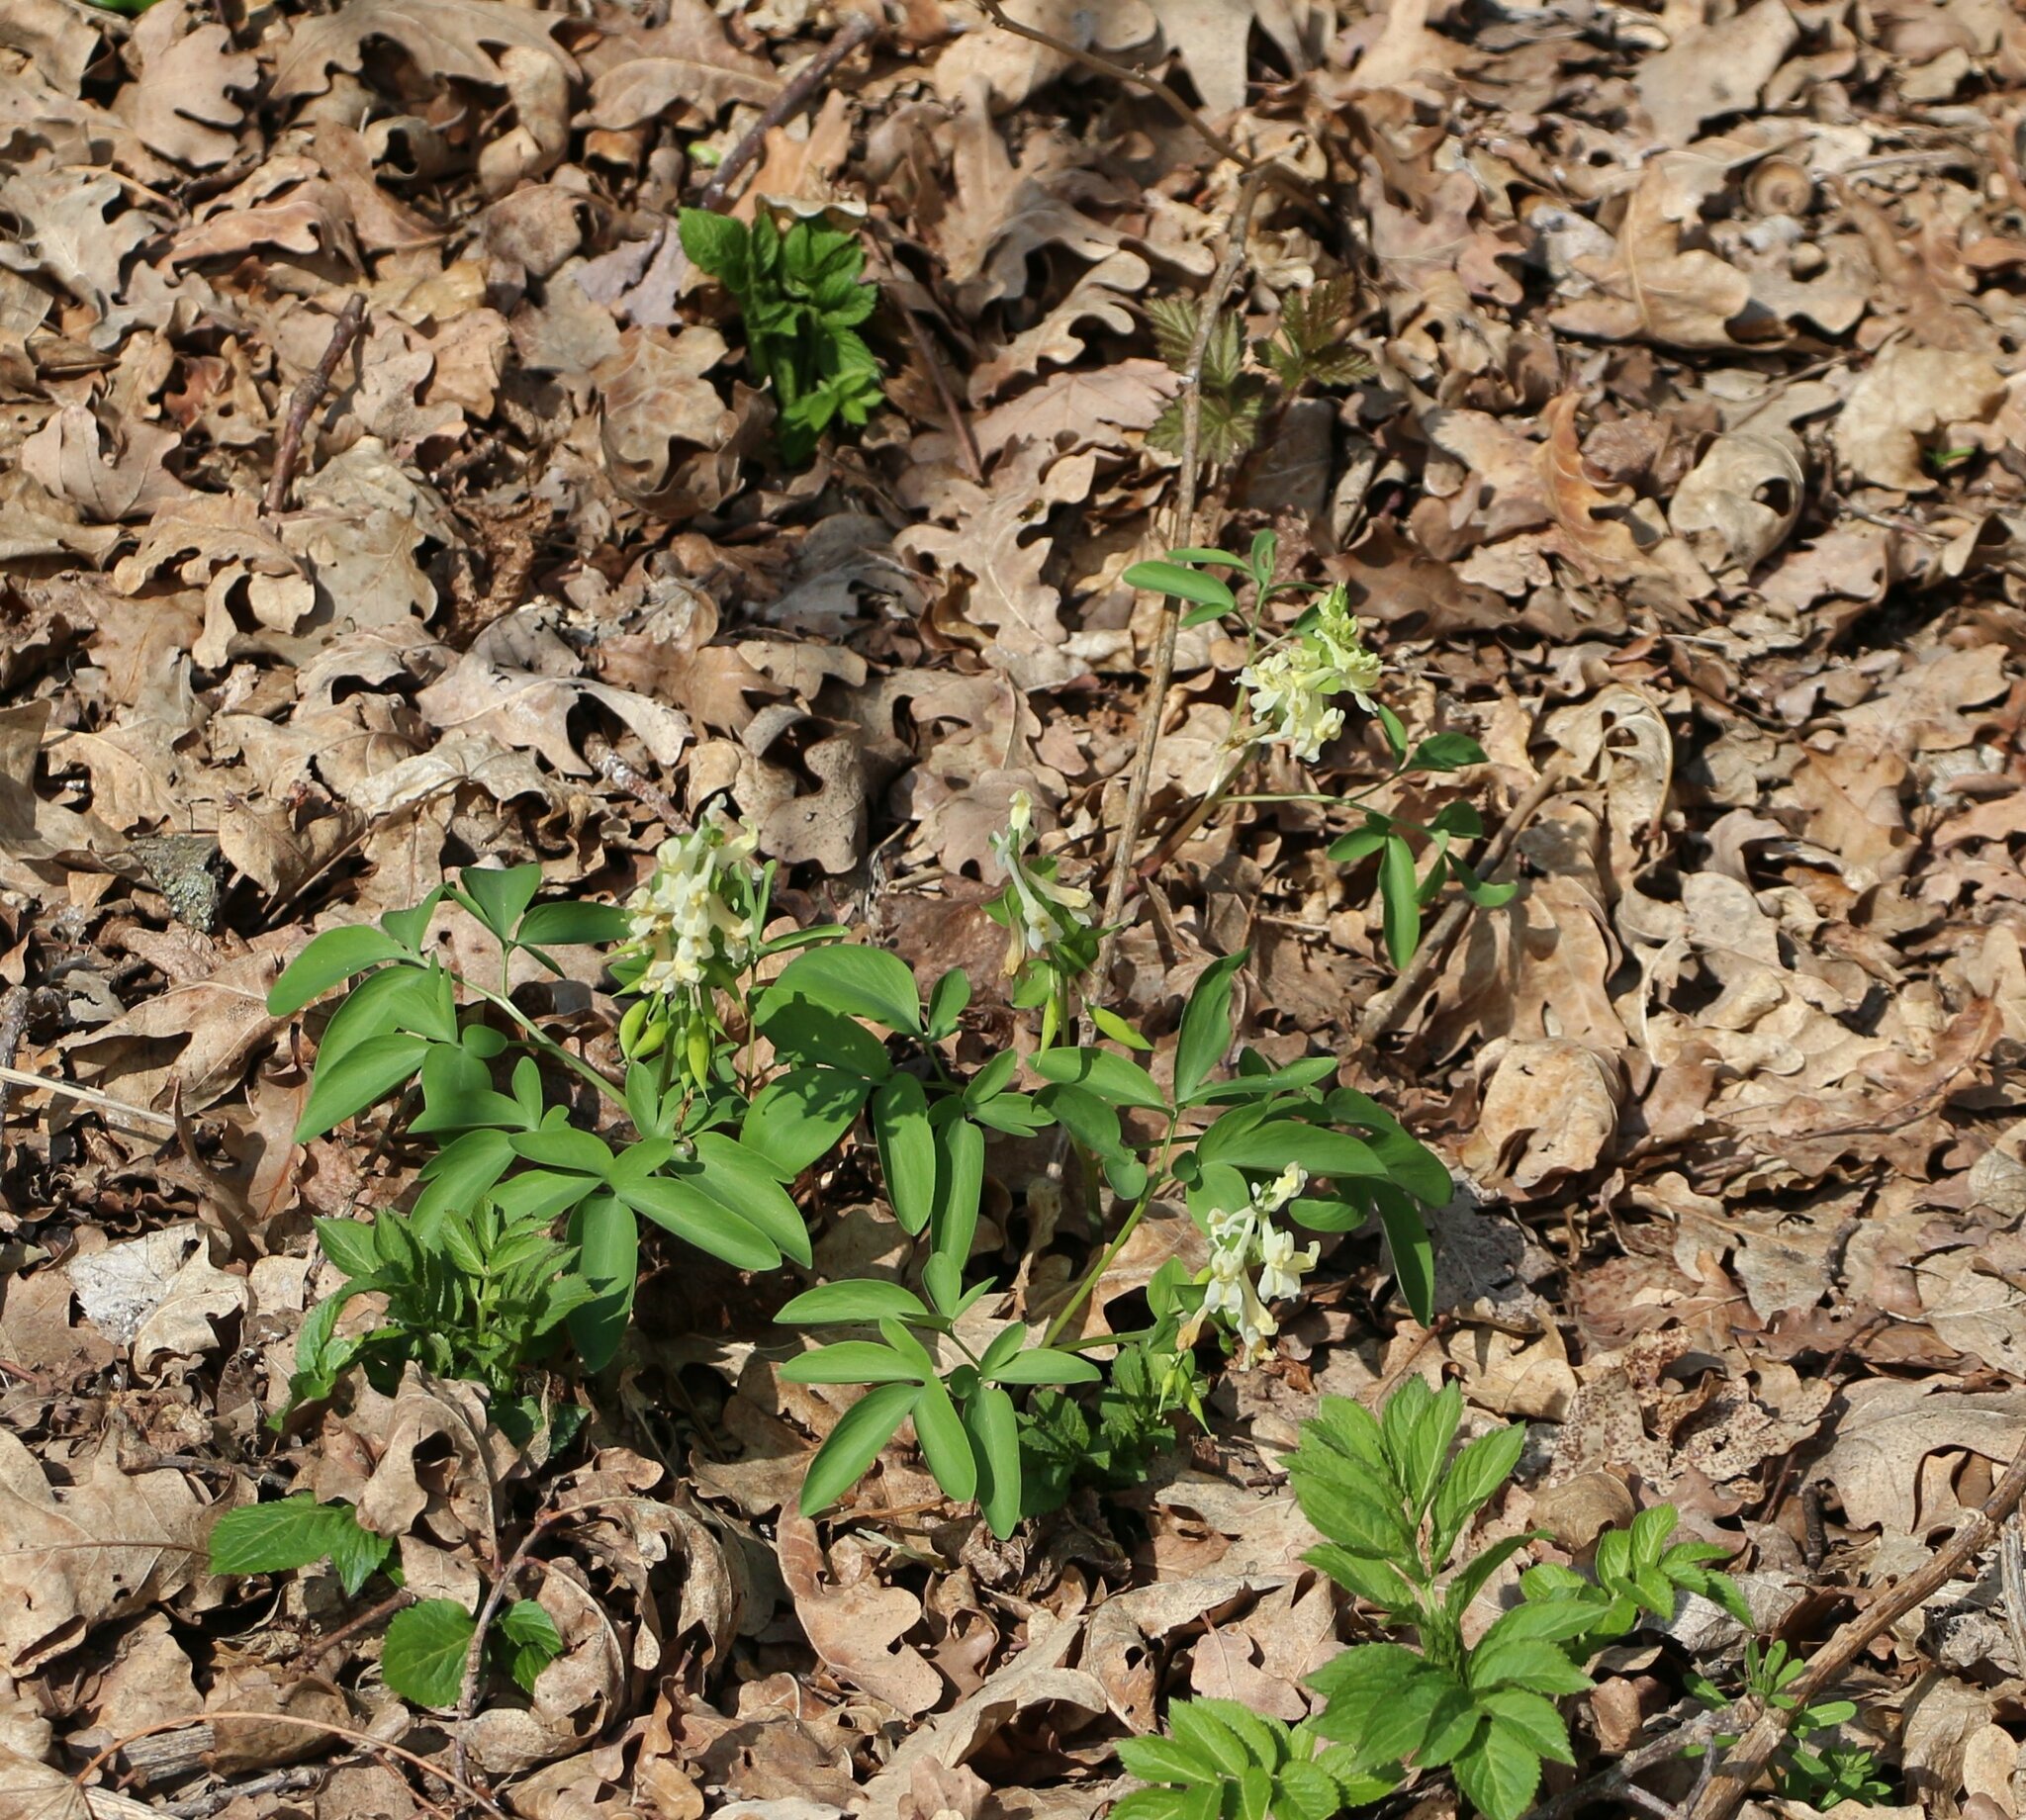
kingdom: Plantae
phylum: Tracheophyta
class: Magnoliopsida
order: Ranunculales
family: Papaveraceae
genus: Corydalis
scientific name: Corydalis cava
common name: Hollowroot
